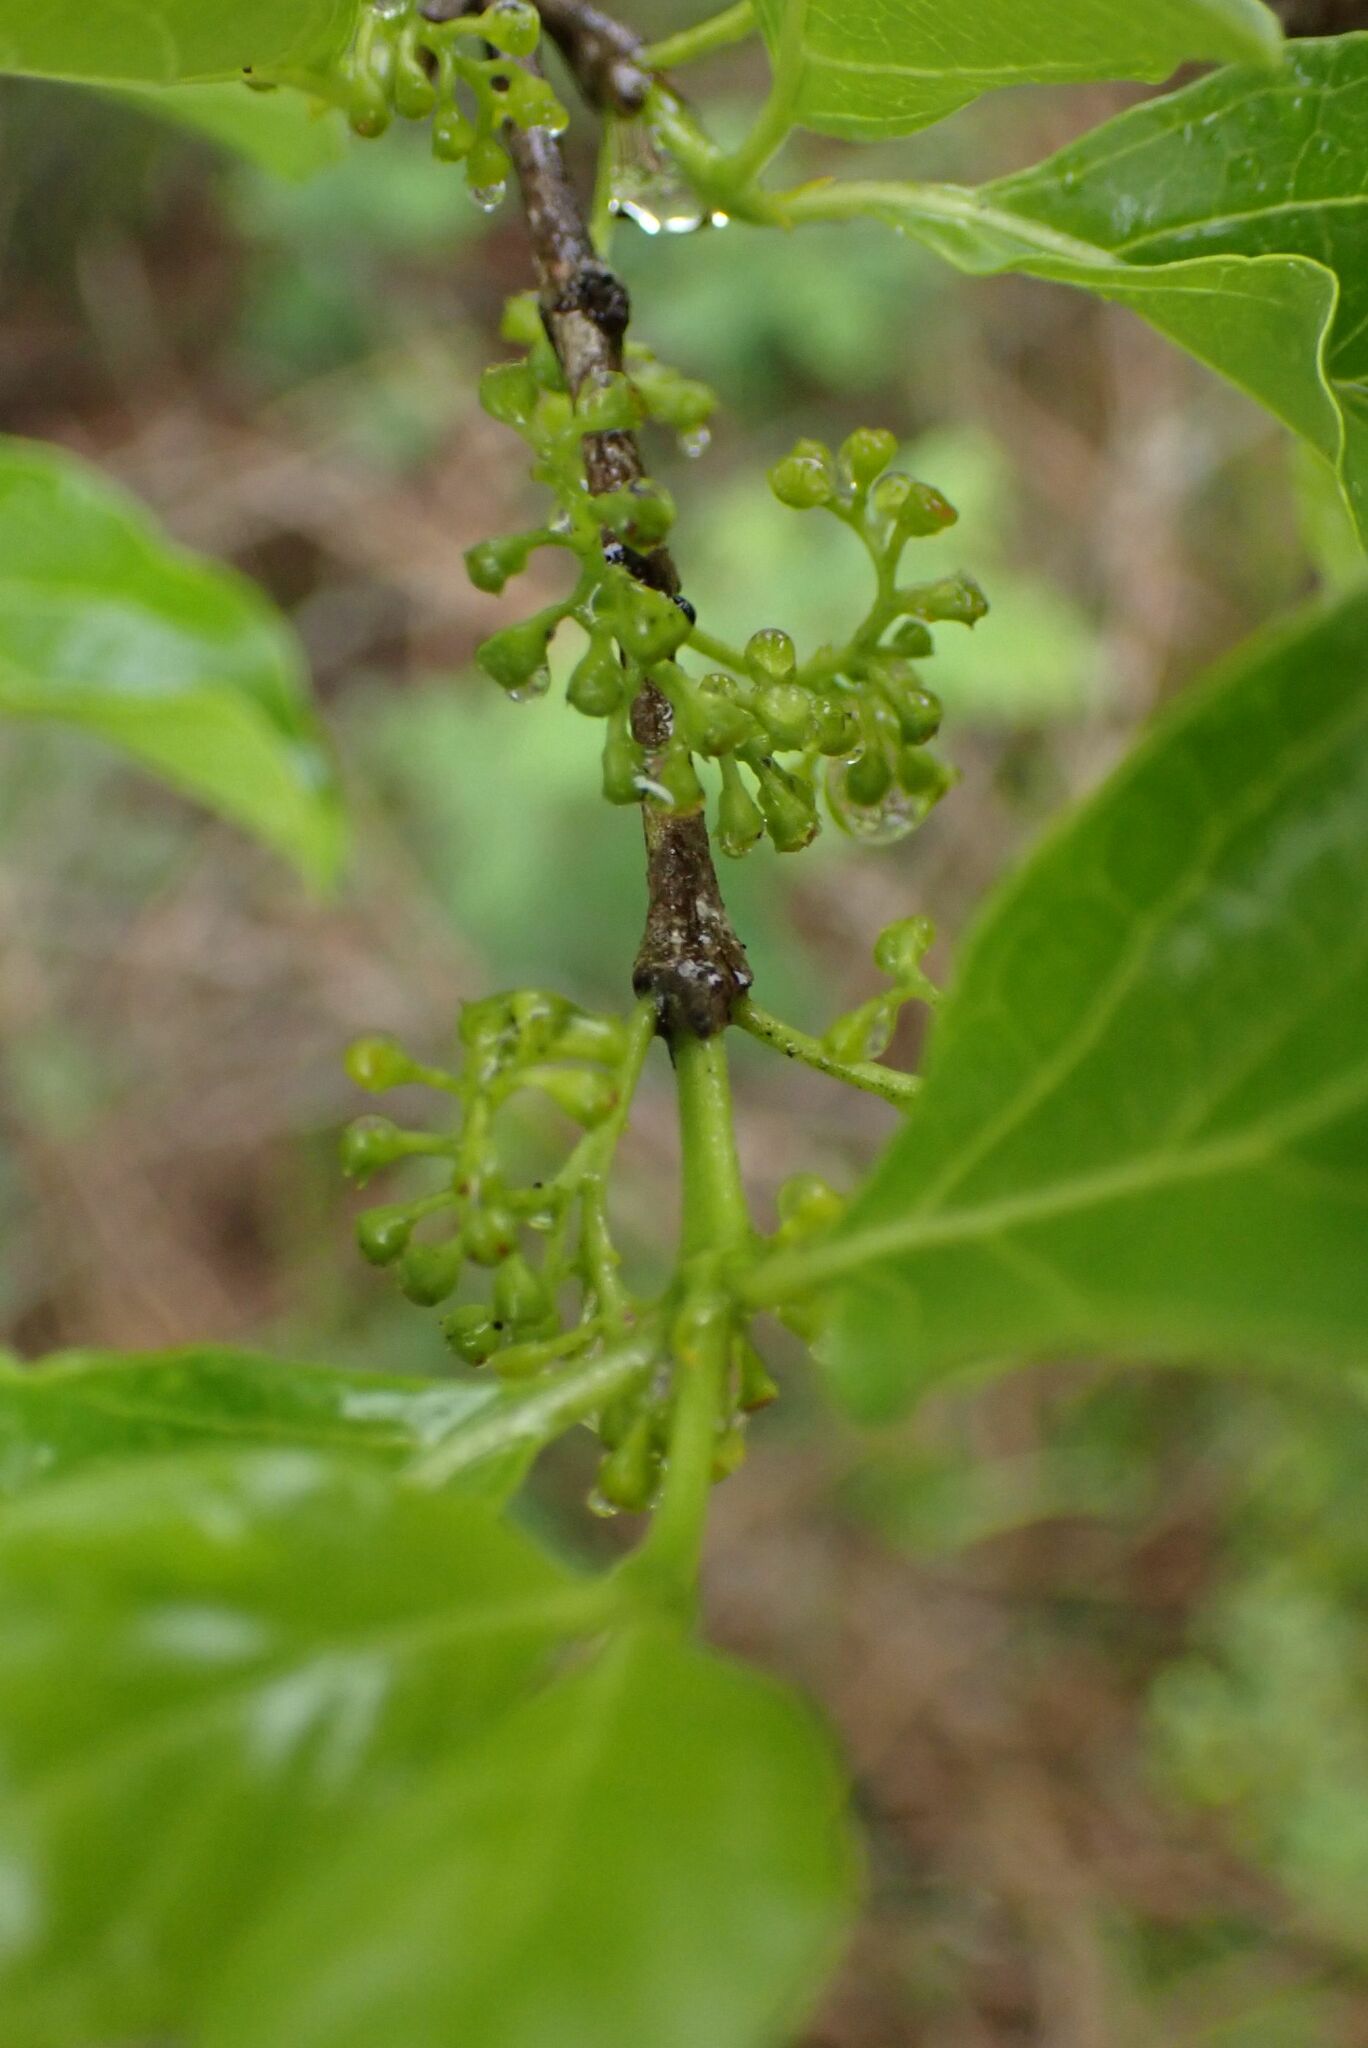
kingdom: Plantae
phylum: Tracheophyta
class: Magnoliopsida
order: Gentianales
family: Rubiaceae
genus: Afrocanthium
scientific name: Afrocanthium mundianum
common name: Rock-alder
